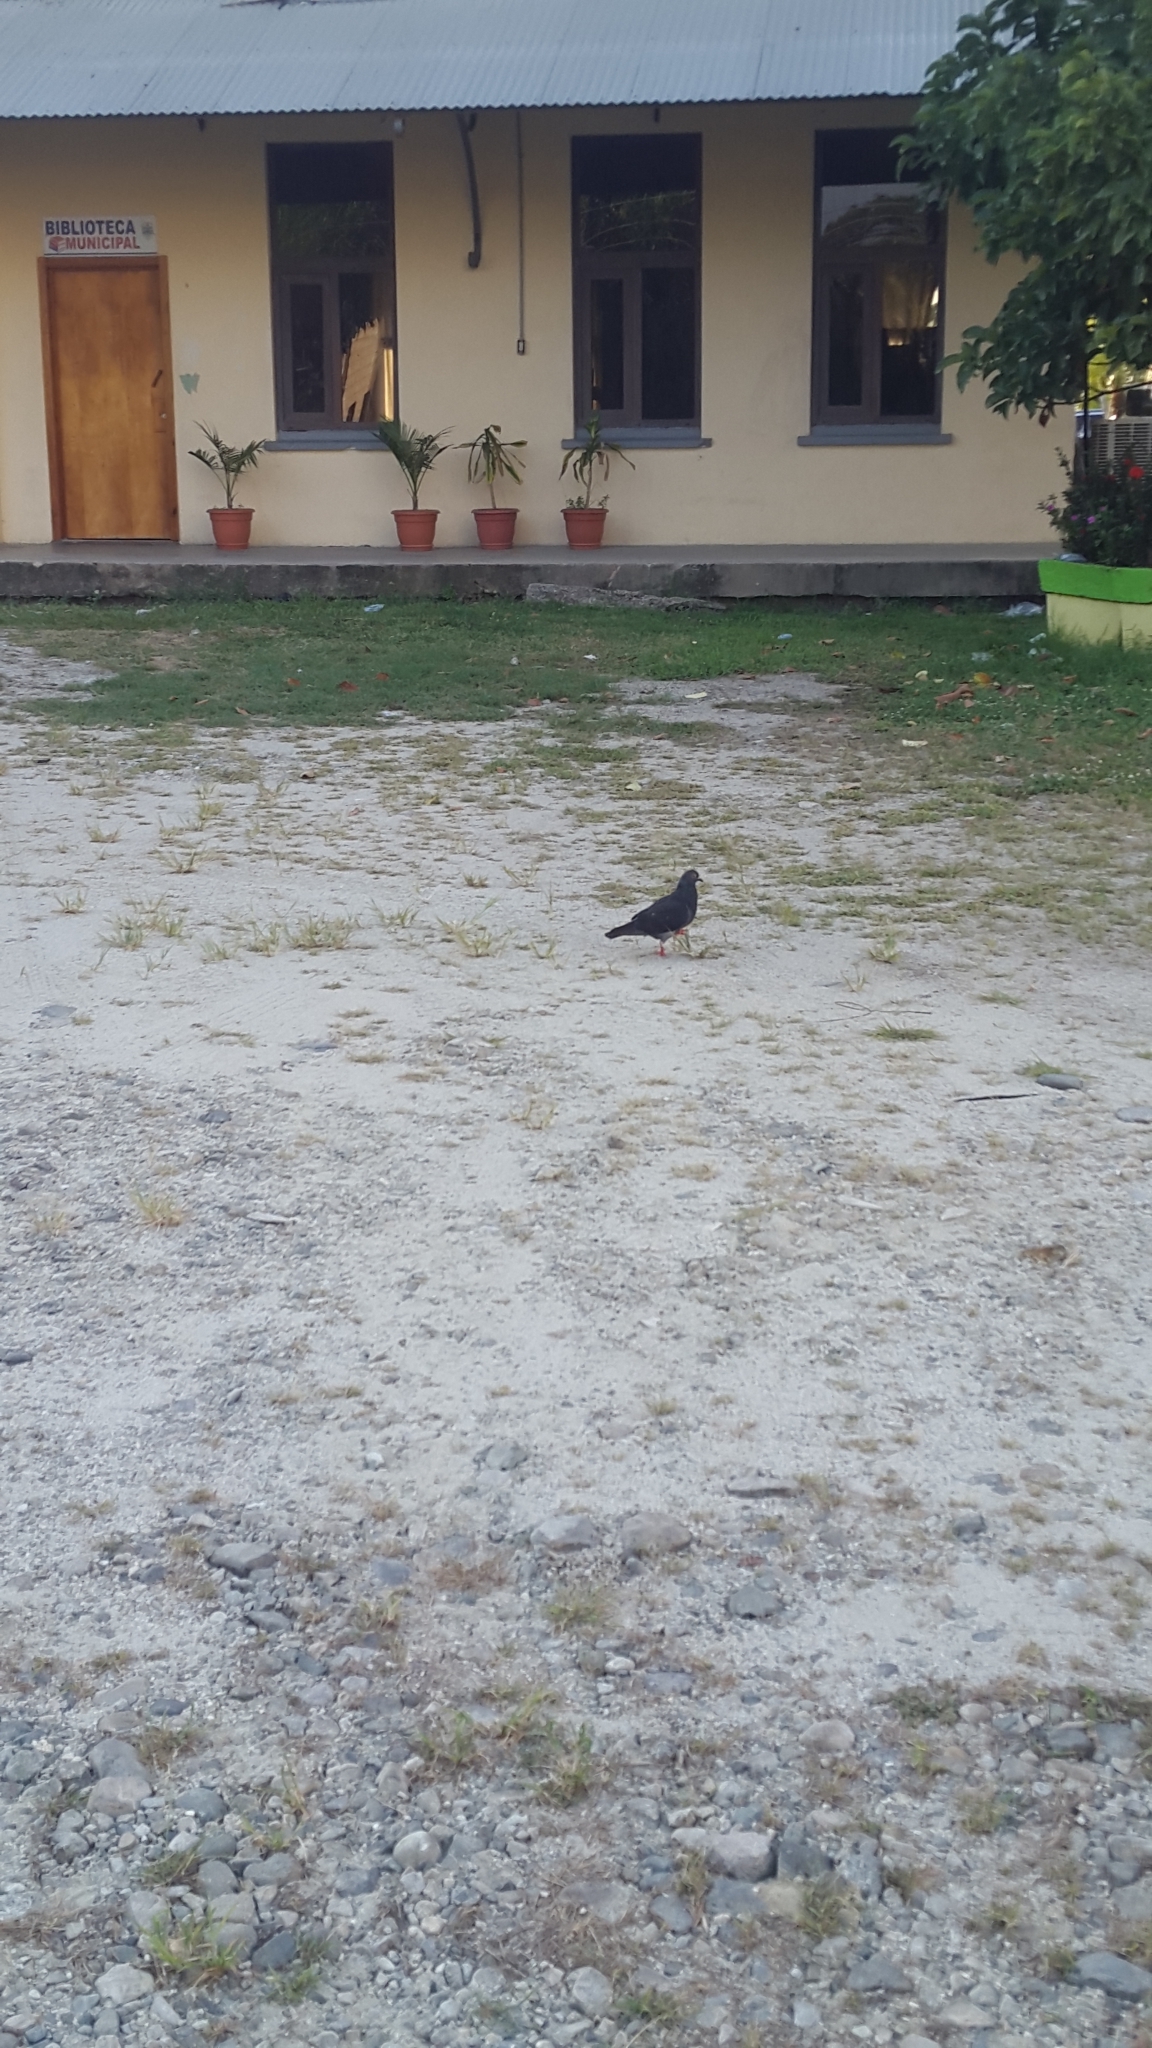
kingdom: Animalia
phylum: Chordata
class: Aves
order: Columbiformes
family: Columbidae
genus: Columba
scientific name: Columba livia
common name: Rock pigeon
